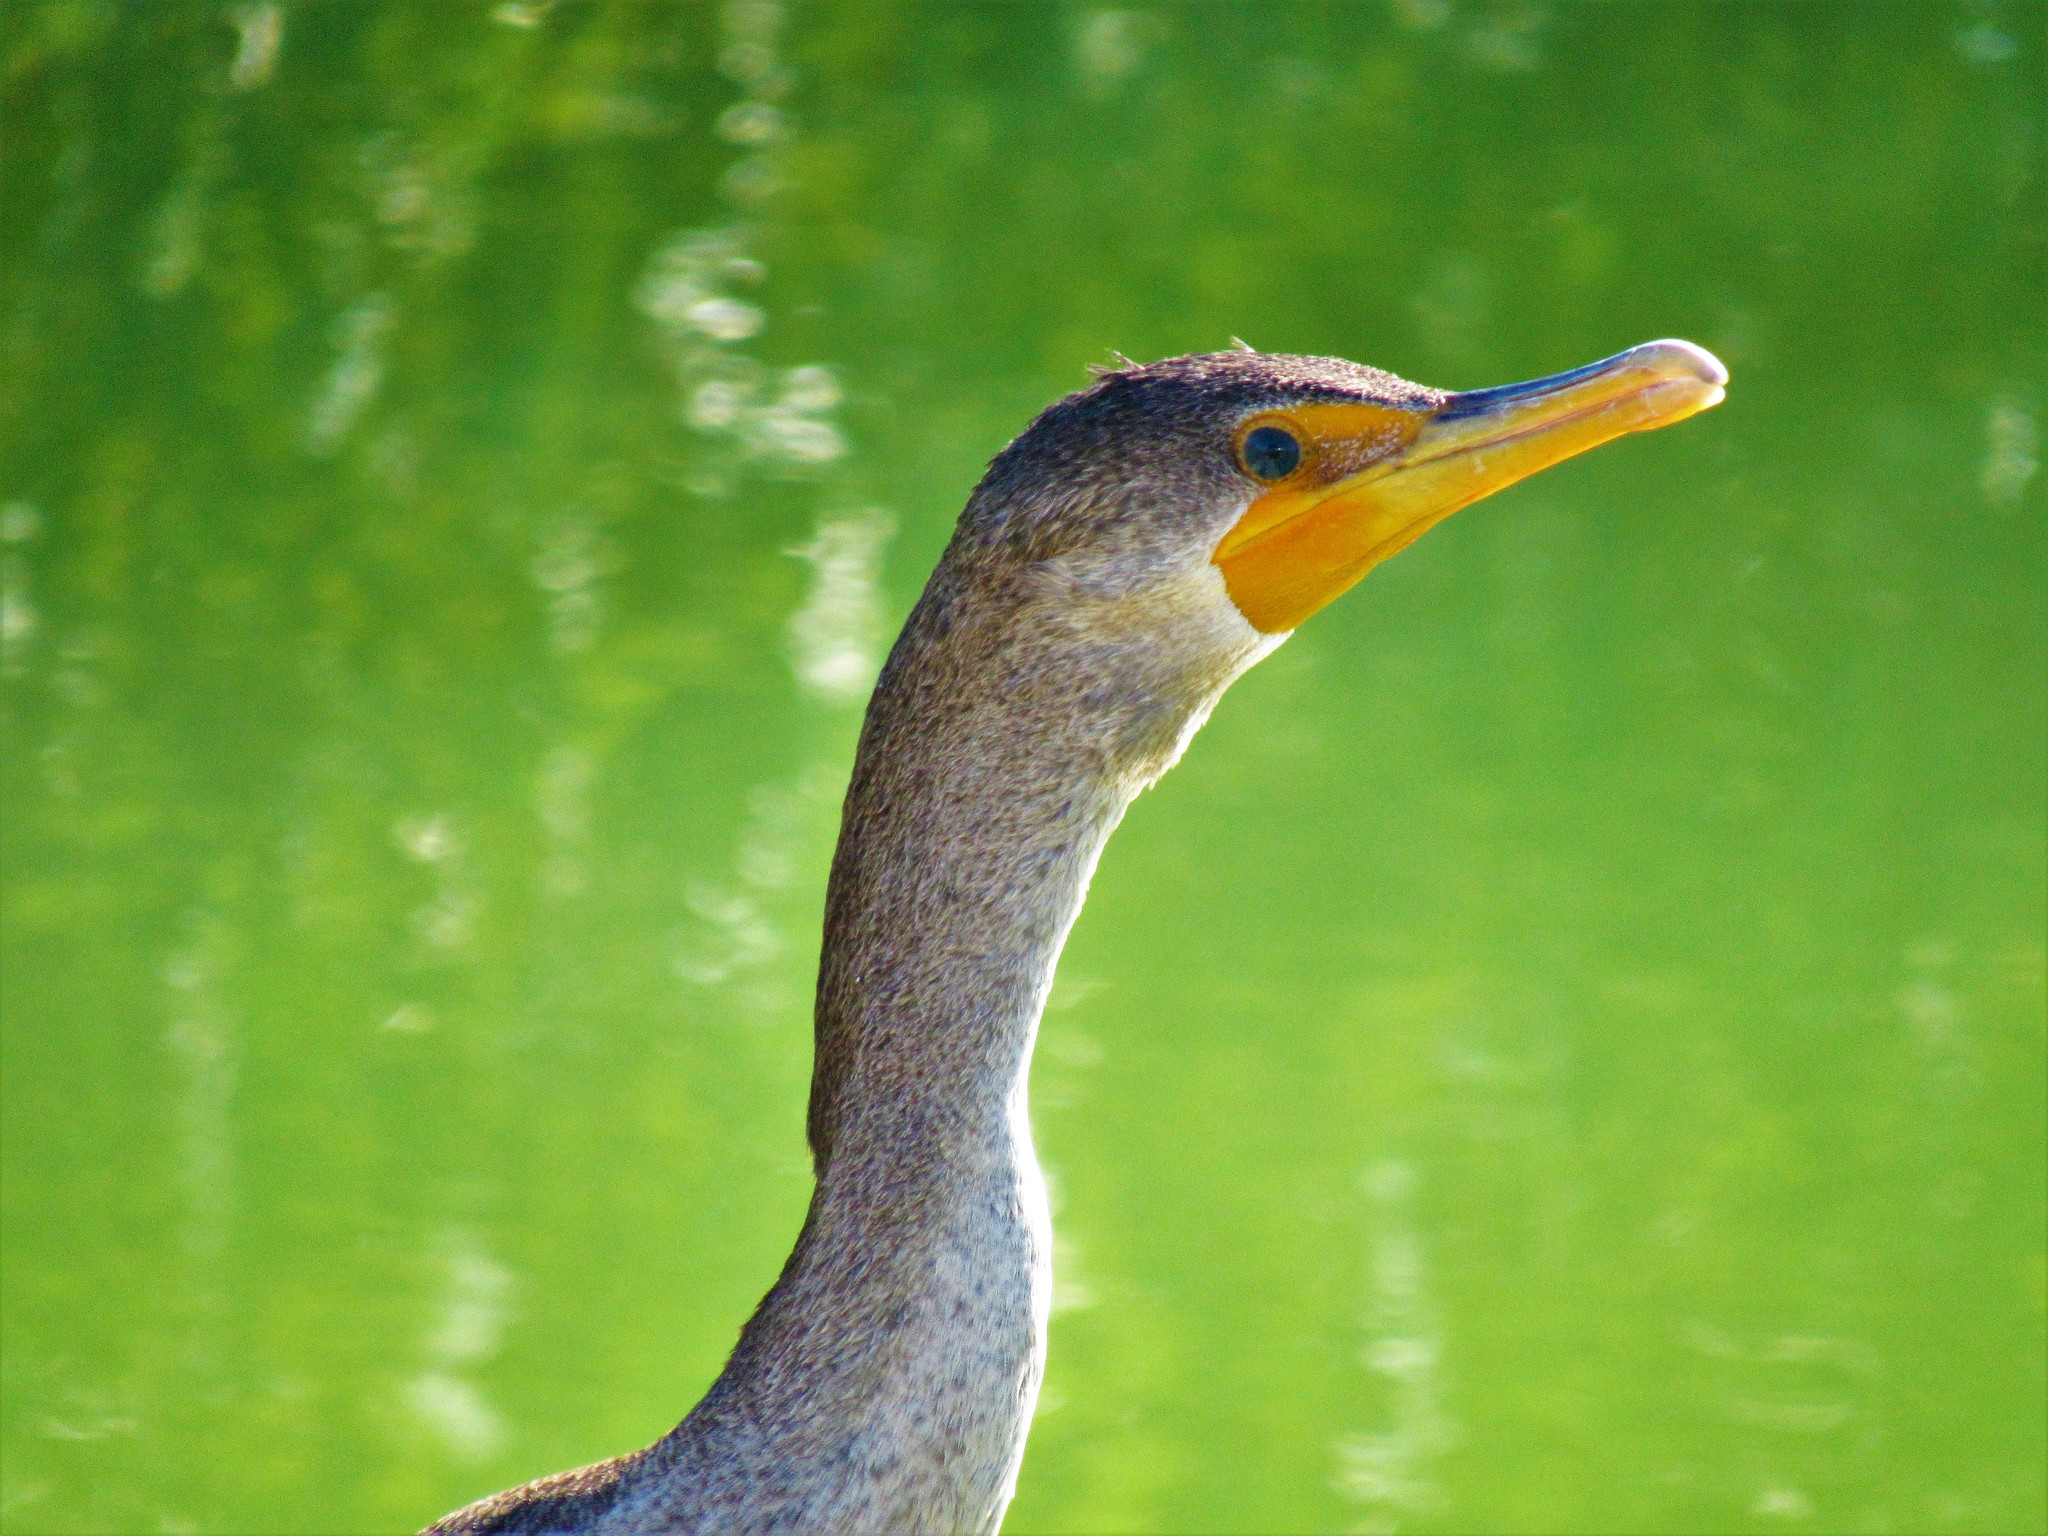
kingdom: Animalia
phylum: Chordata
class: Aves
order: Suliformes
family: Phalacrocoracidae
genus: Phalacrocorax
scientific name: Phalacrocorax auritus
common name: Double-crested cormorant
